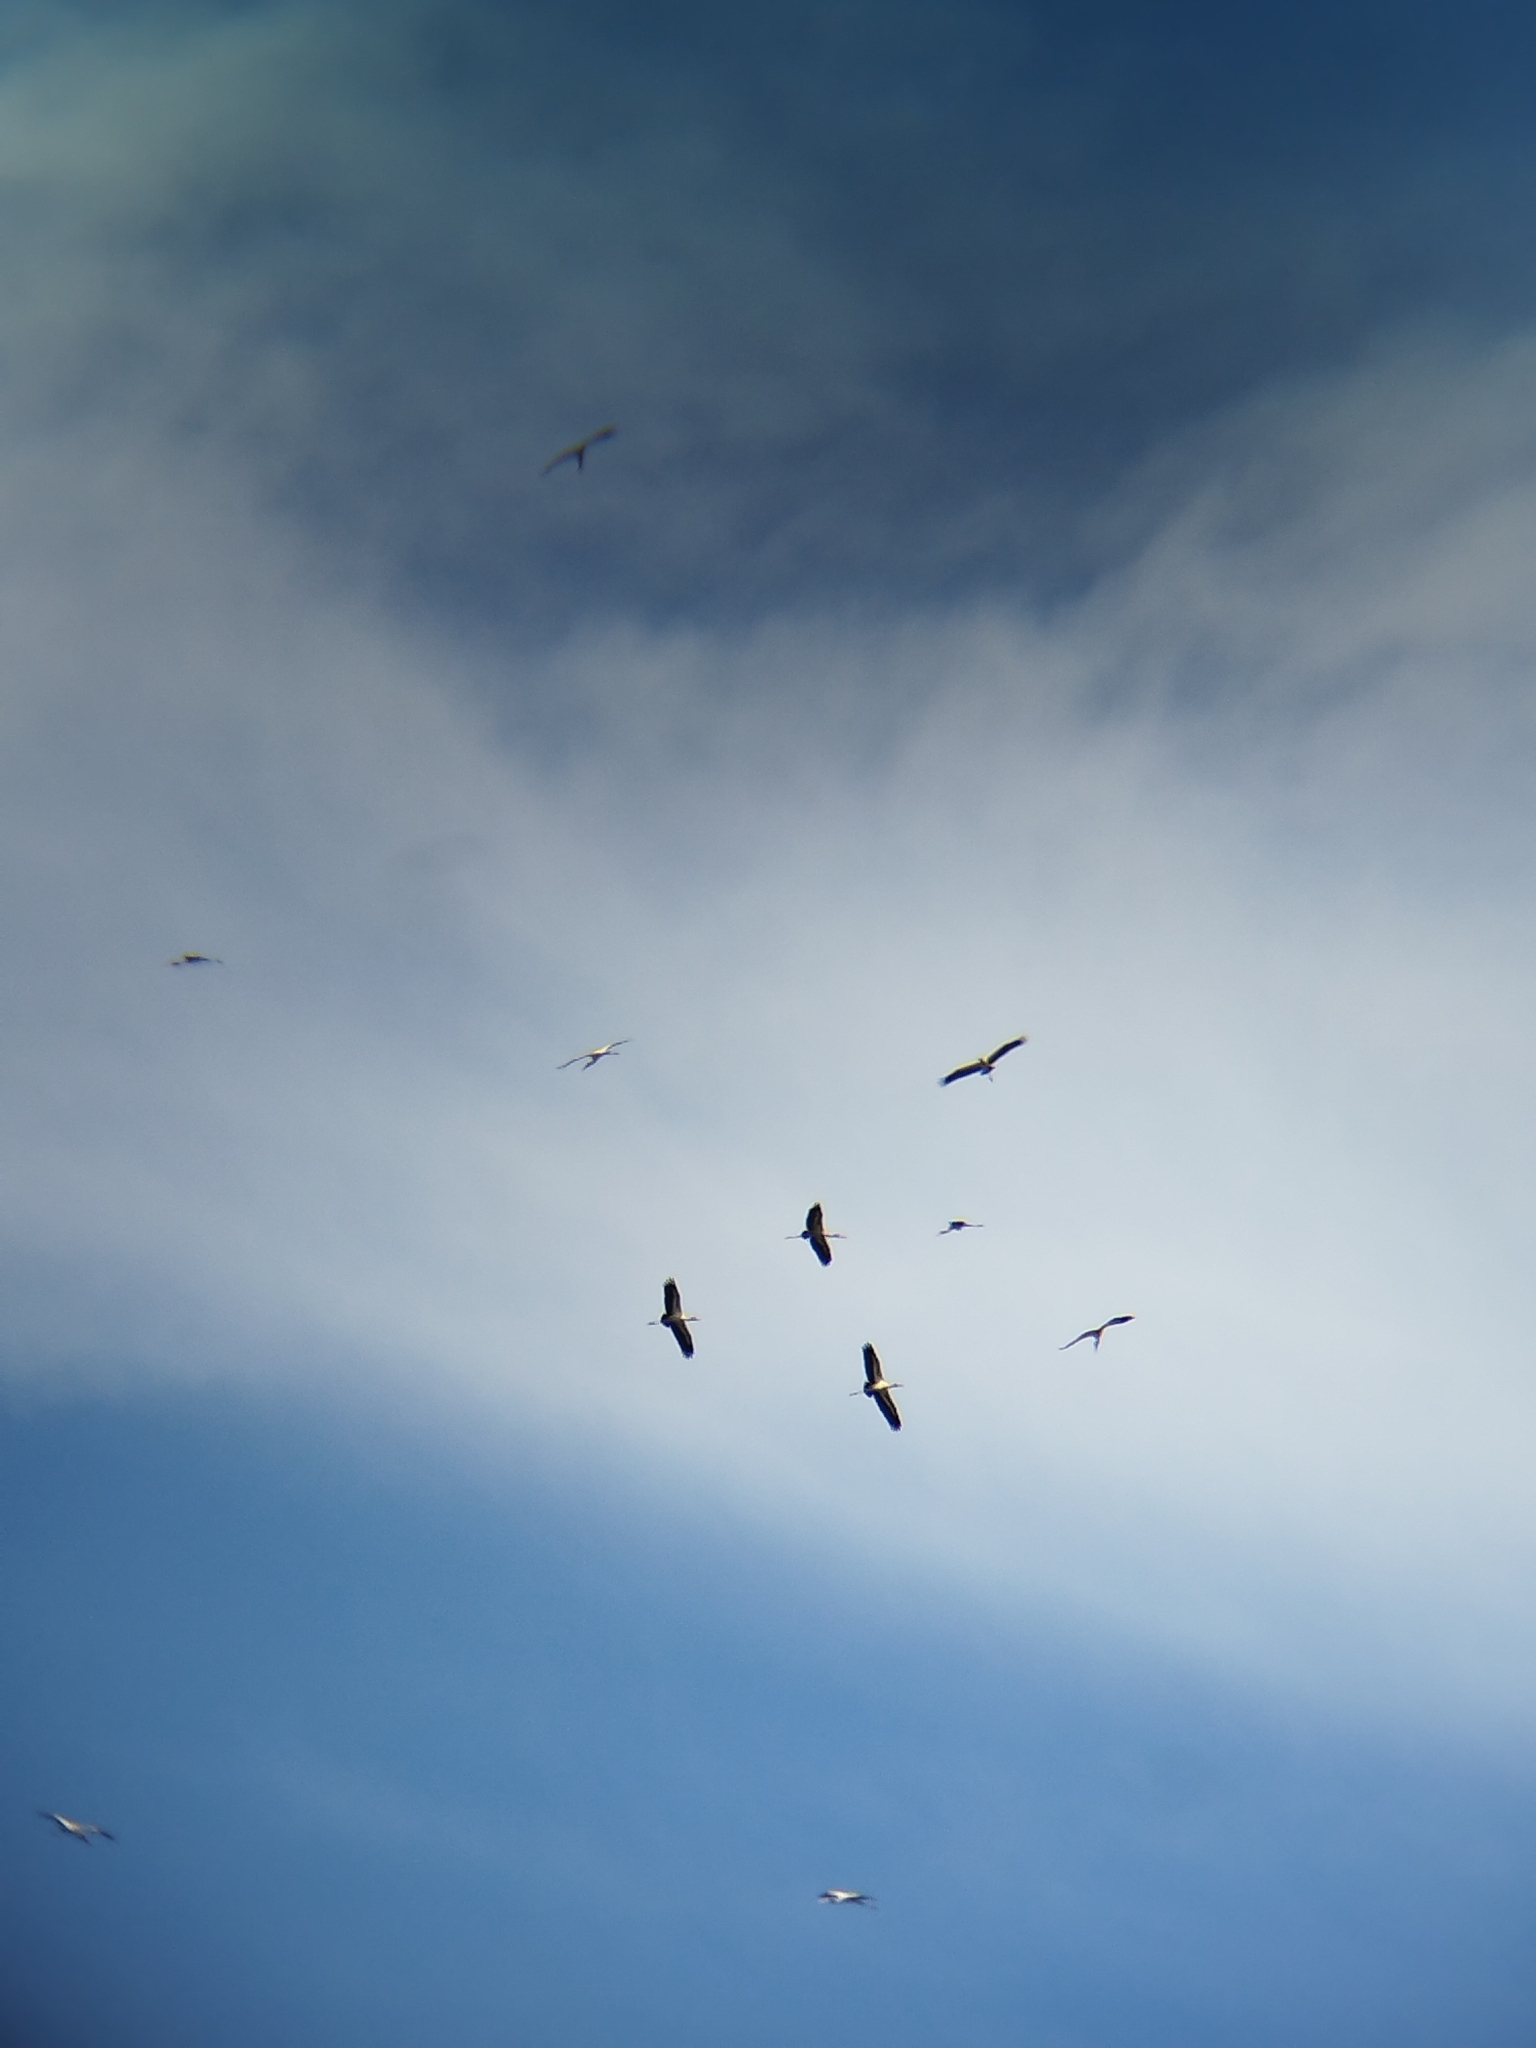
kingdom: Animalia
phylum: Chordata
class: Aves
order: Ciconiiformes
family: Ciconiidae
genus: Ciconia
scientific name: Ciconia maguari
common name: Maguari stork
